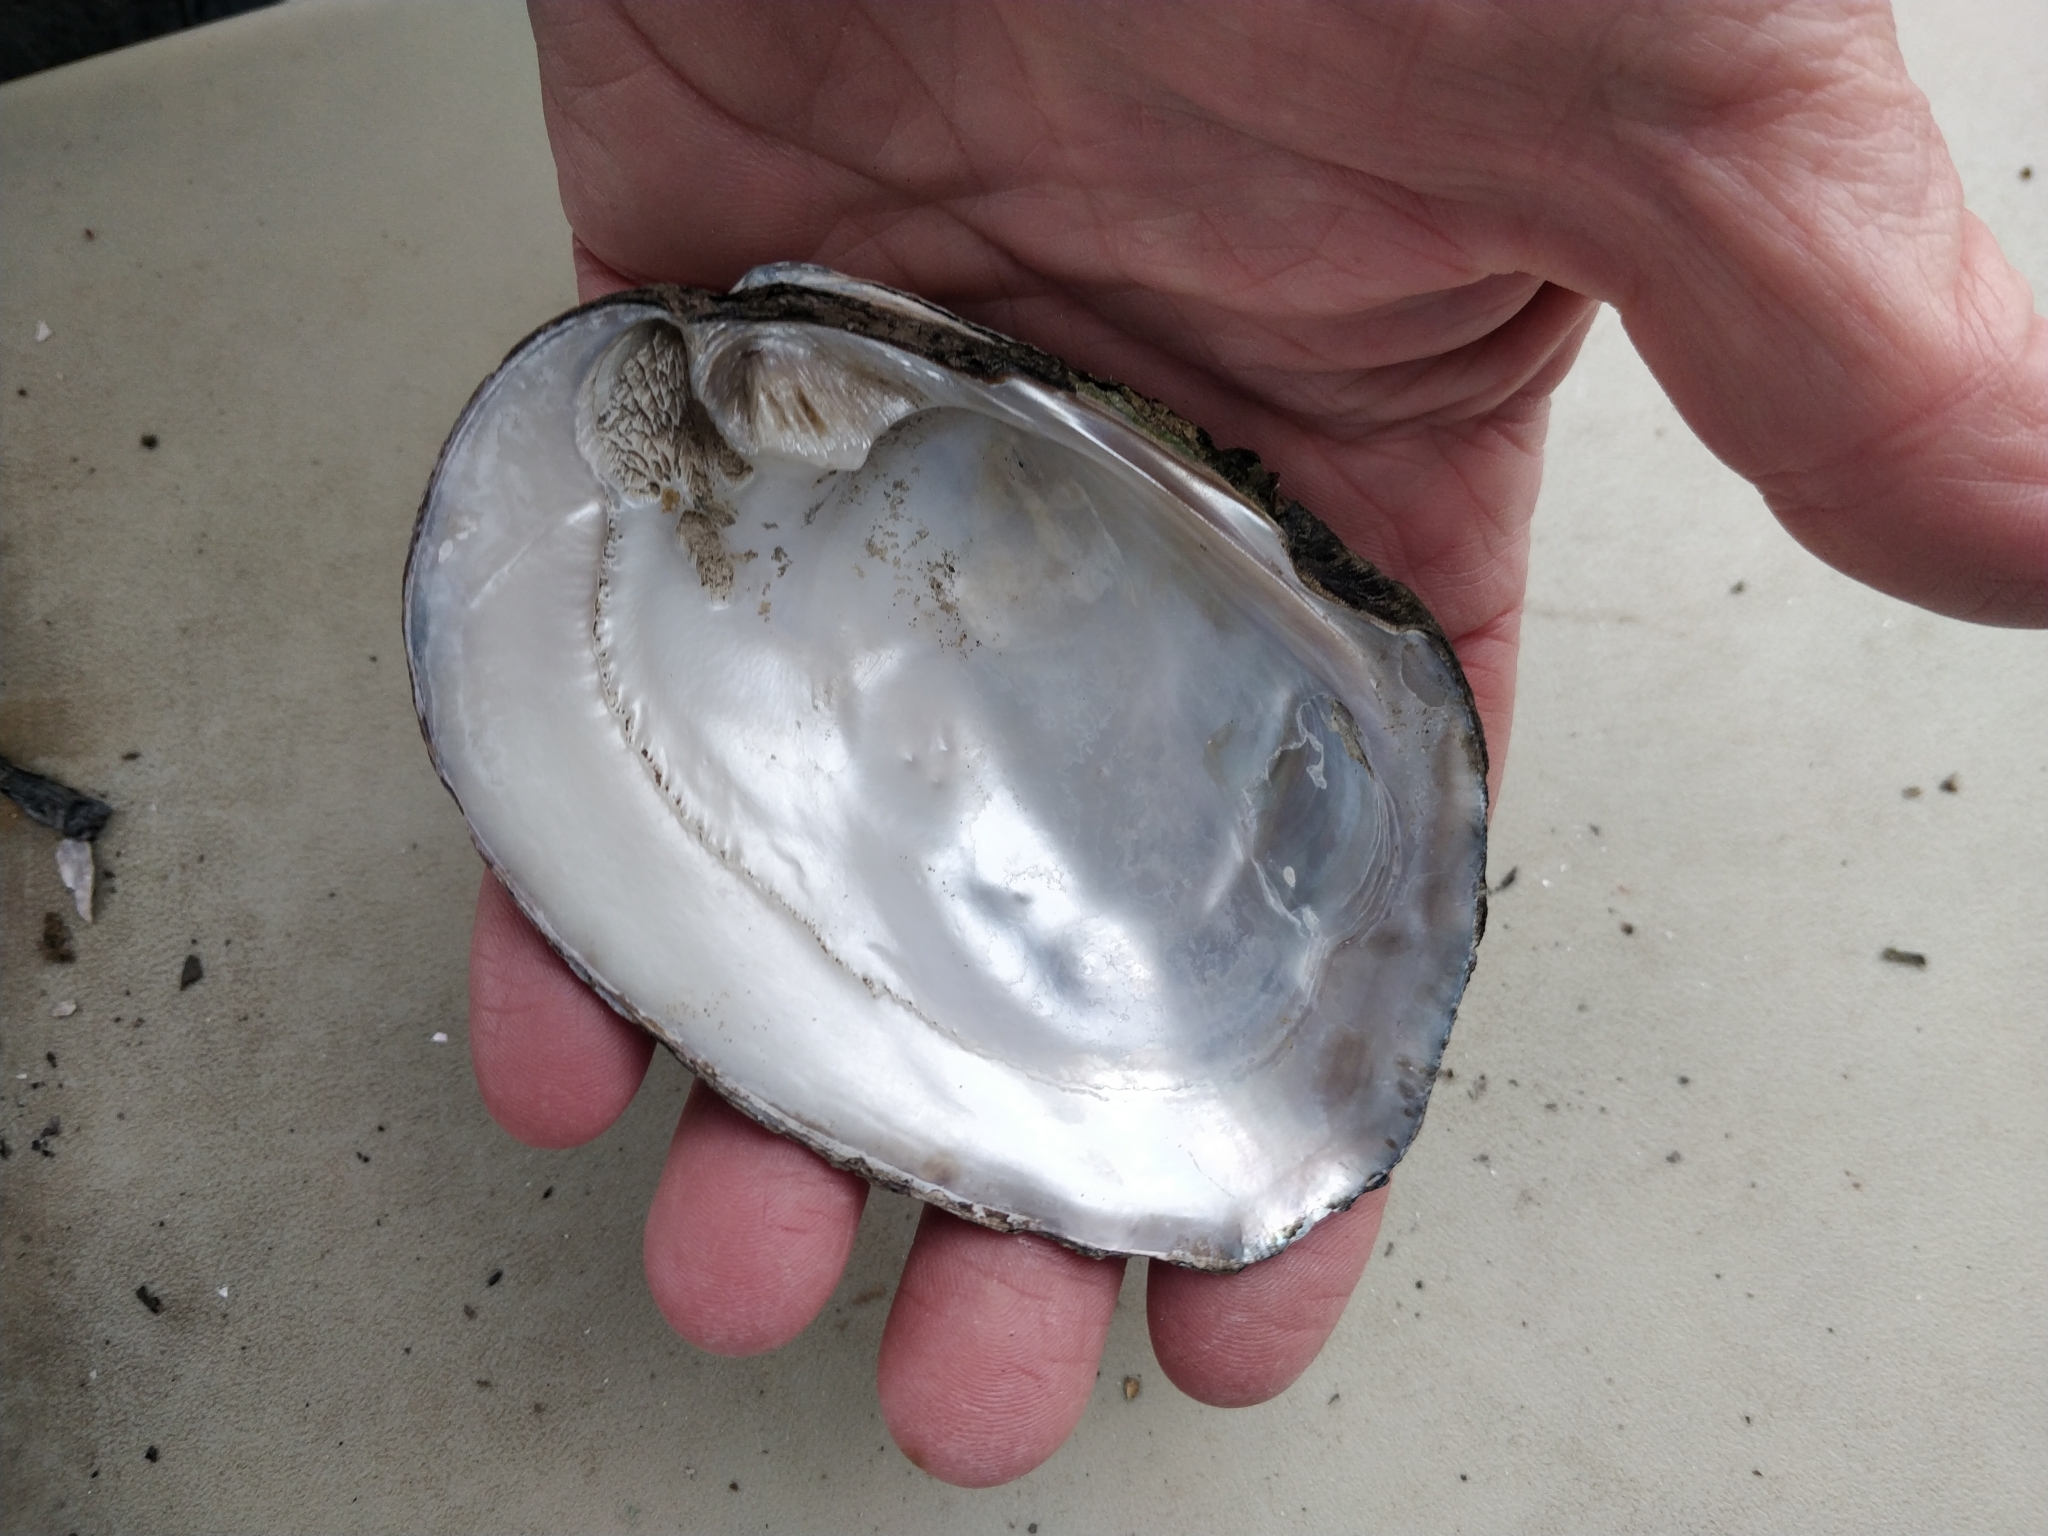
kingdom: Animalia
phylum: Mollusca
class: Bivalvia
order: Unionida
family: Unionidae
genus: Amblema
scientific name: Amblema plicata
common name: Threeridge
